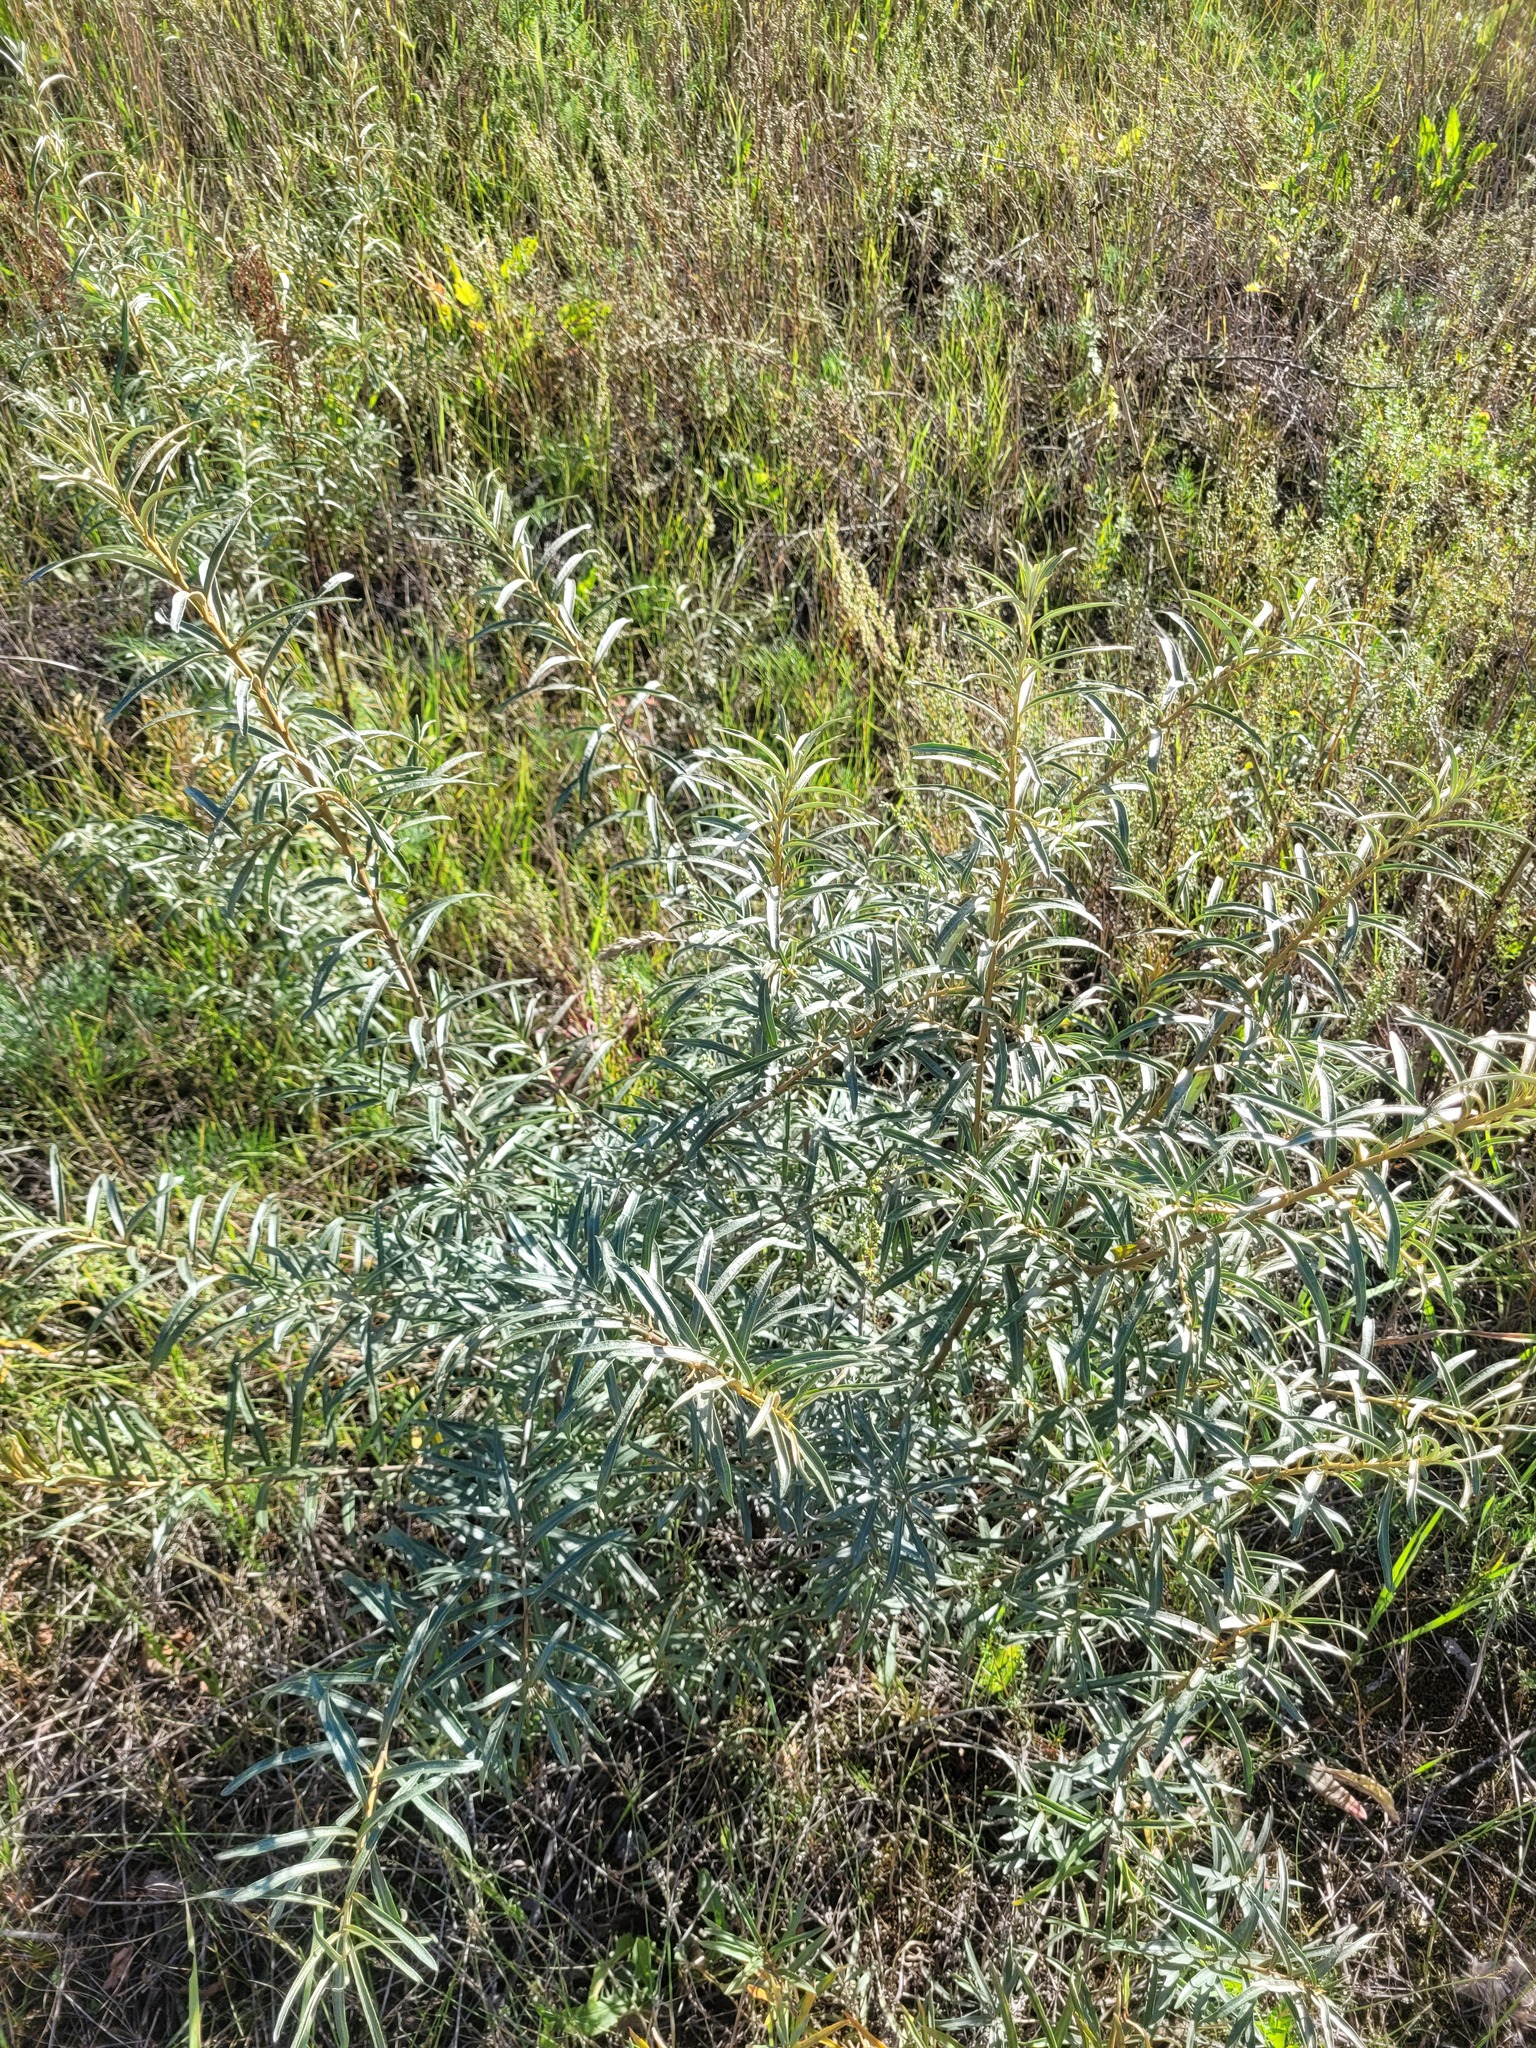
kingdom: Plantae
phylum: Tracheophyta
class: Magnoliopsida
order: Rosales
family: Elaeagnaceae
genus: Hippophae
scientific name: Hippophae rhamnoides
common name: Sea-buckthorn
